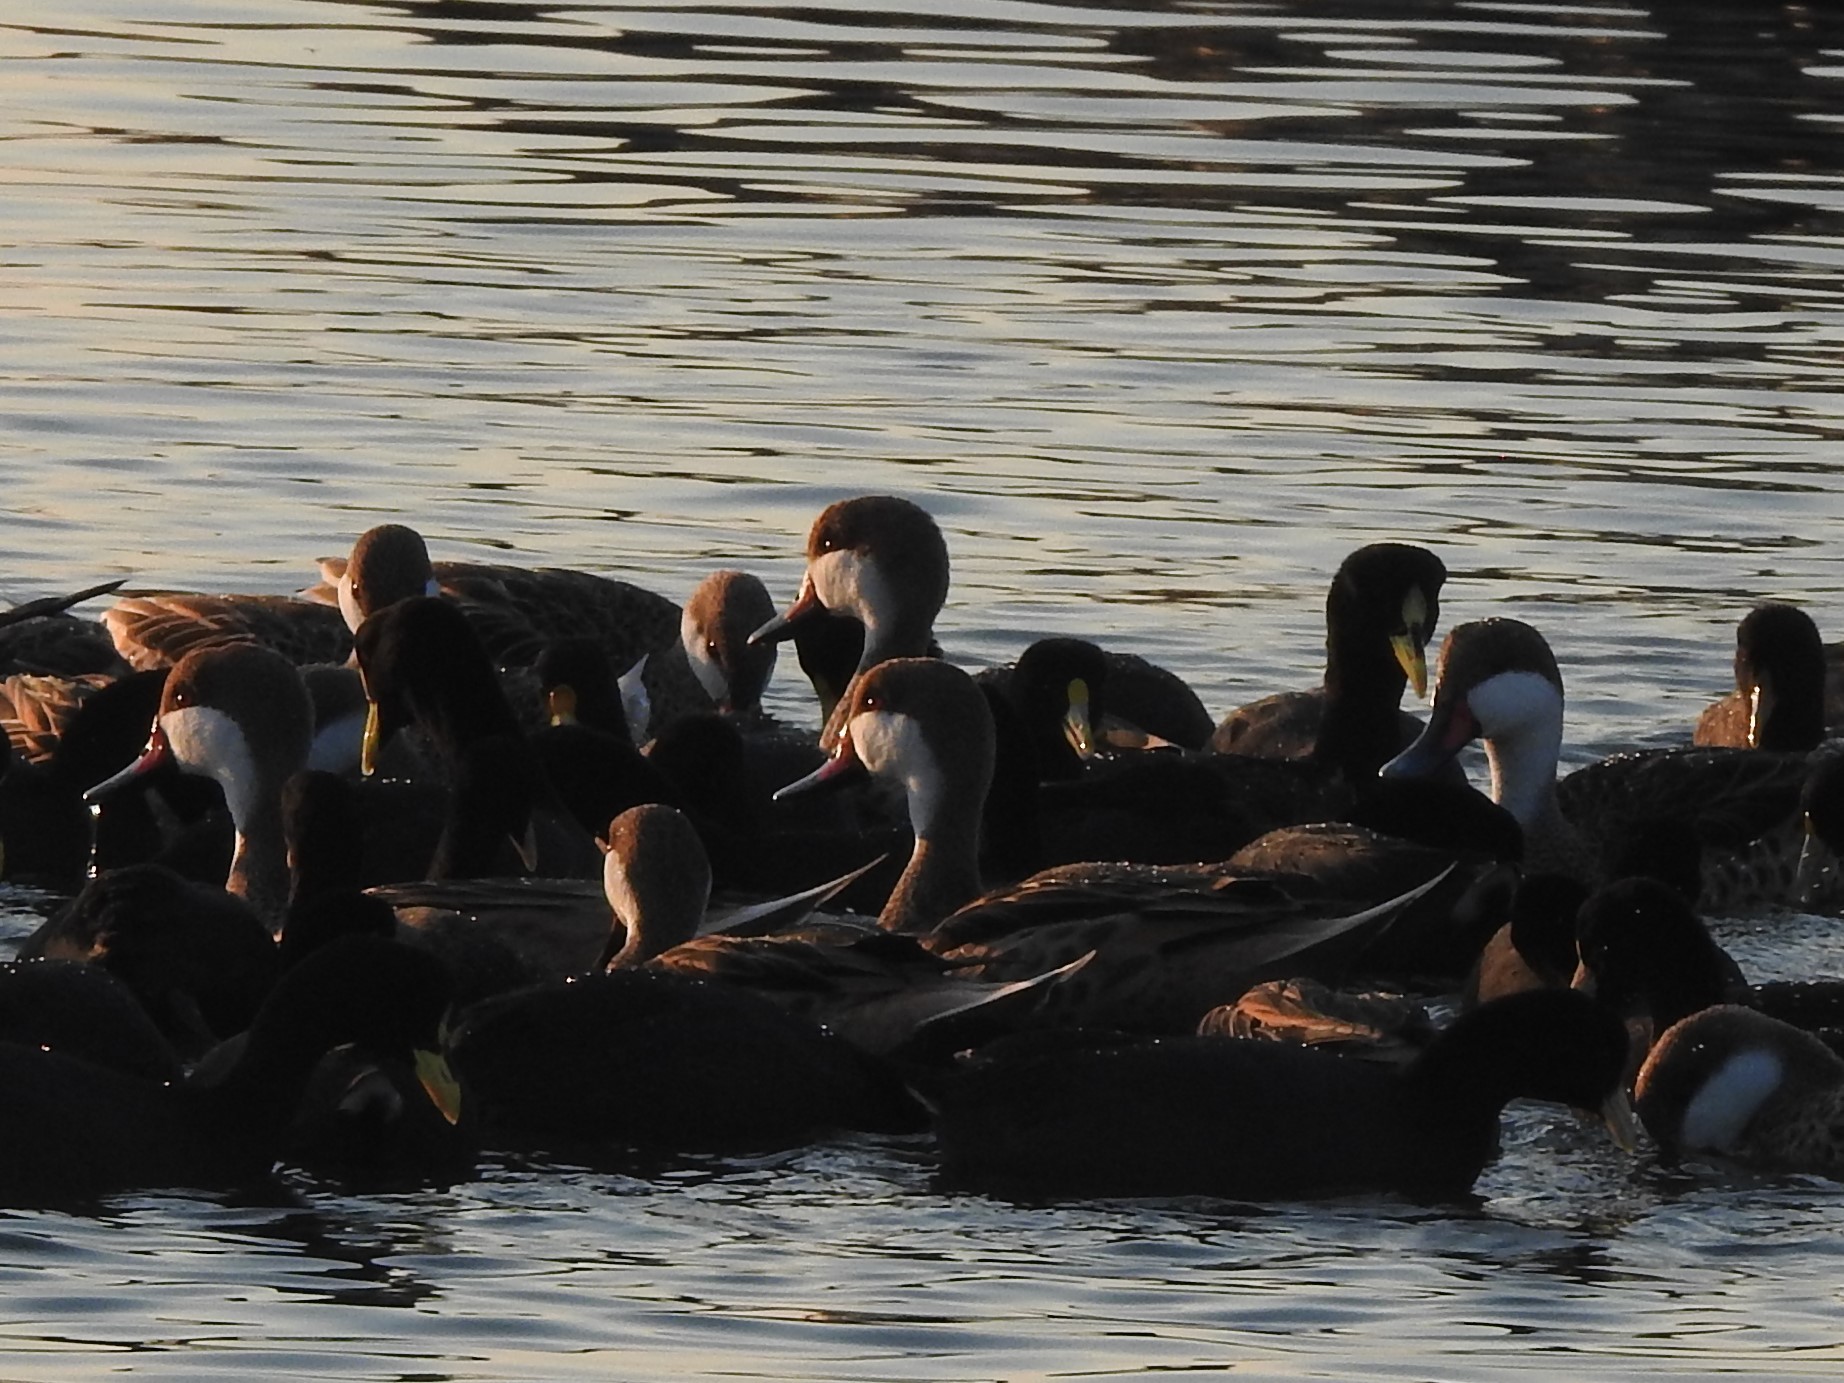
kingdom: Animalia
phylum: Chordata
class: Aves
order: Gruiformes
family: Rallidae
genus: Fulica
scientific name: Fulica armillata
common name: Red-gartered coot
